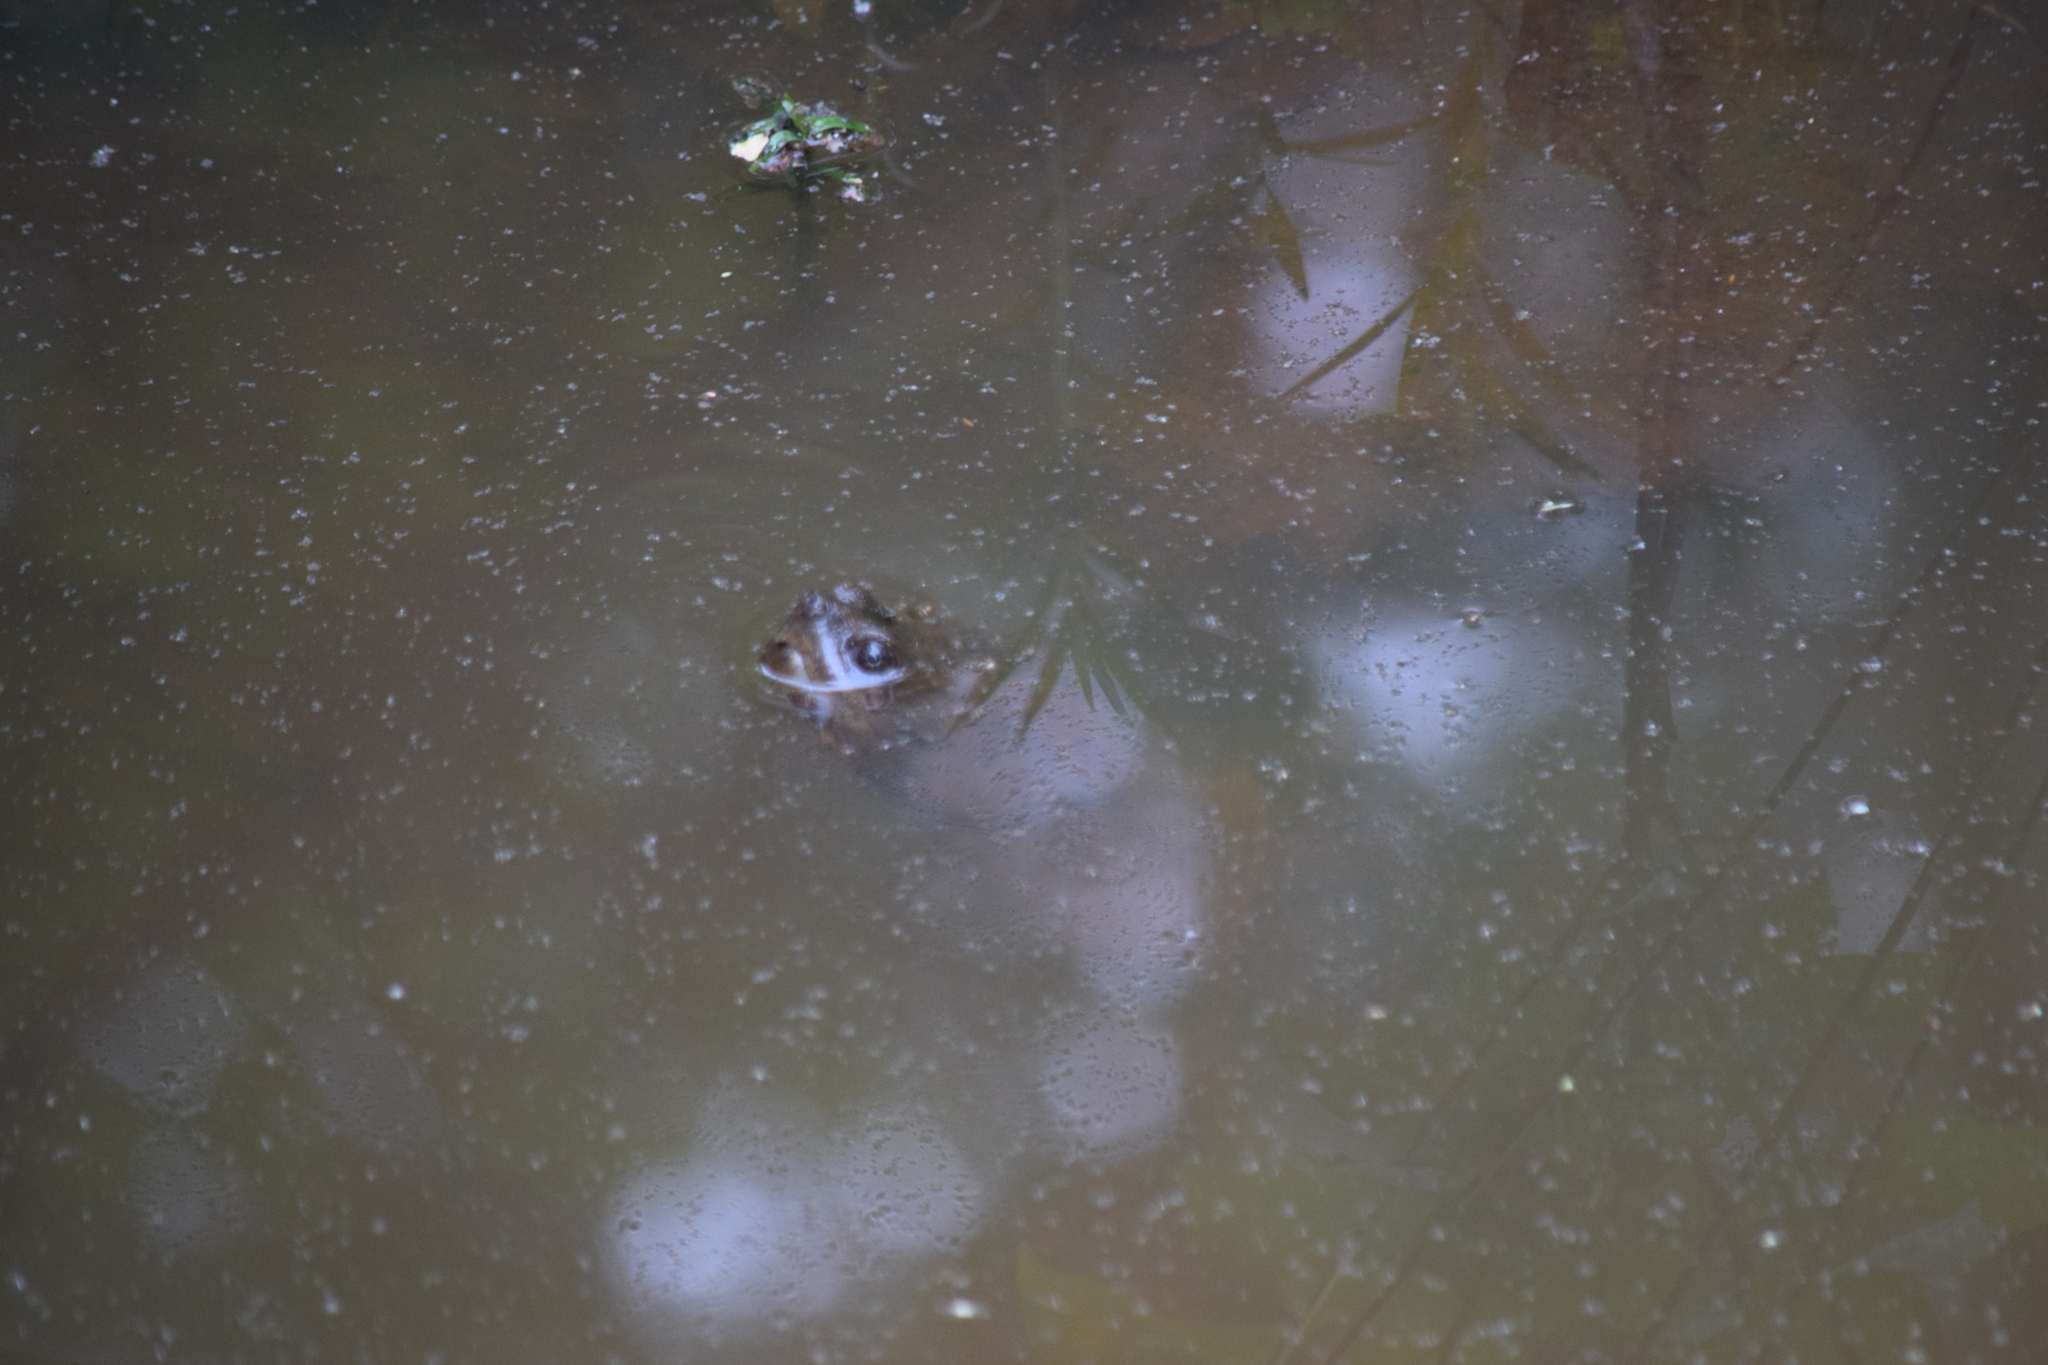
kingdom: Animalia
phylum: Chordata
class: Testudines
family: Chelydridae
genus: Chelydra
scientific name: Chelydra serpentina
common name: Common snapping turtle
